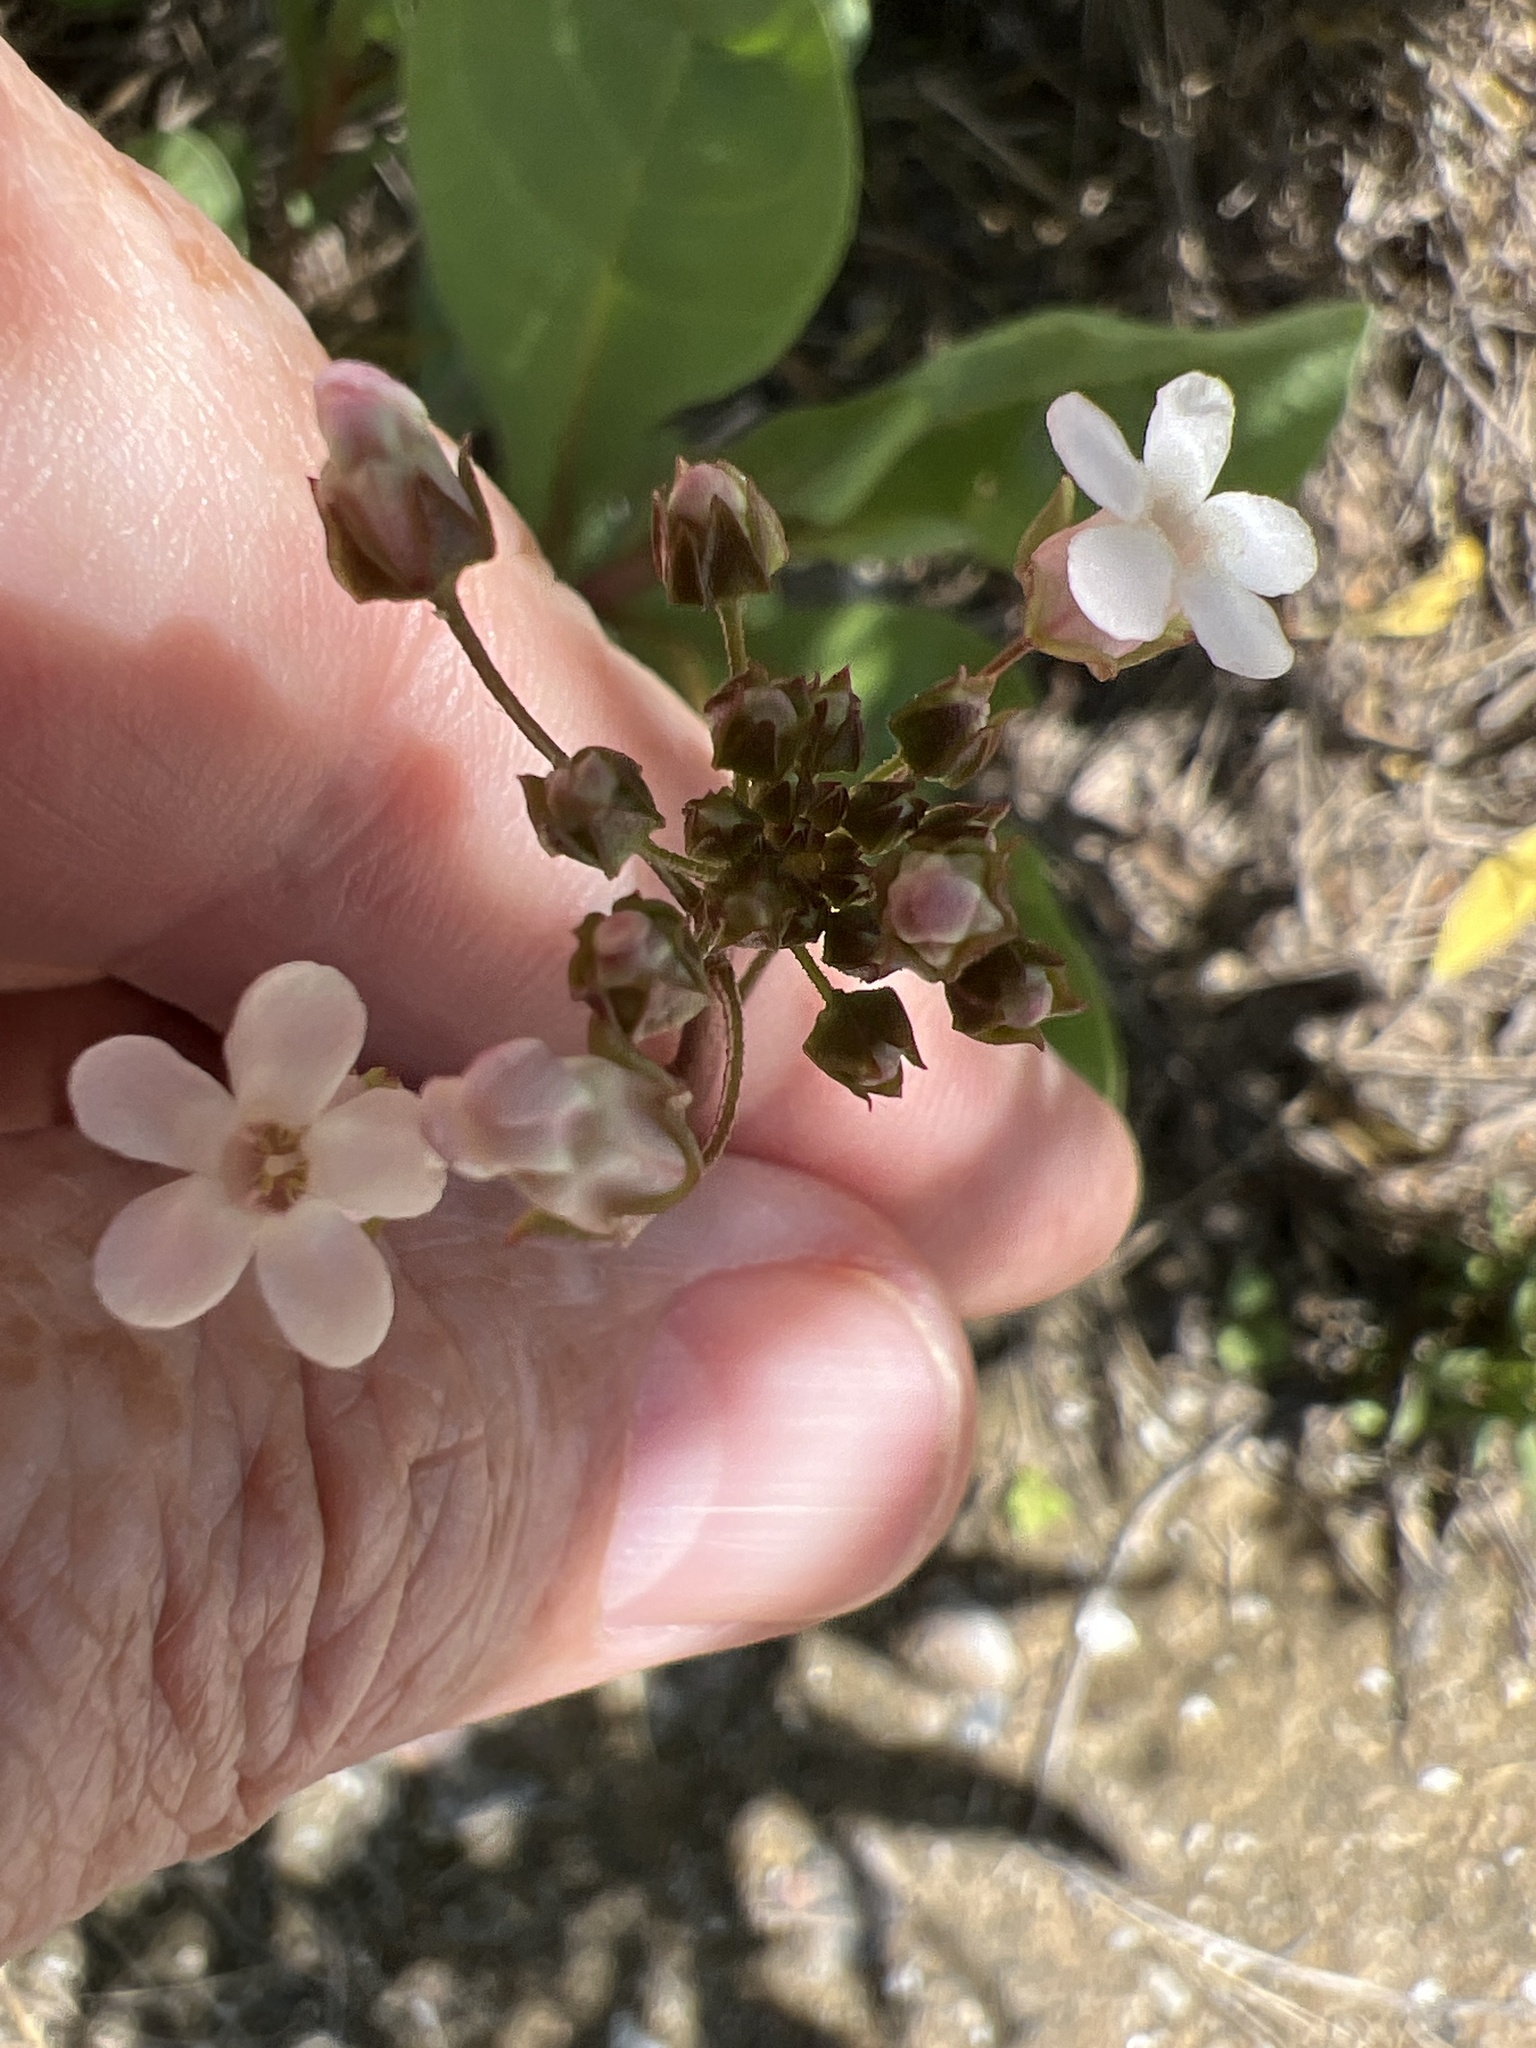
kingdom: Plantae
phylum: Tracheophyta
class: Magnoliopsida
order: Ericales
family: Primulaceae
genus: Samolus
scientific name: Samolus ebracteatus
